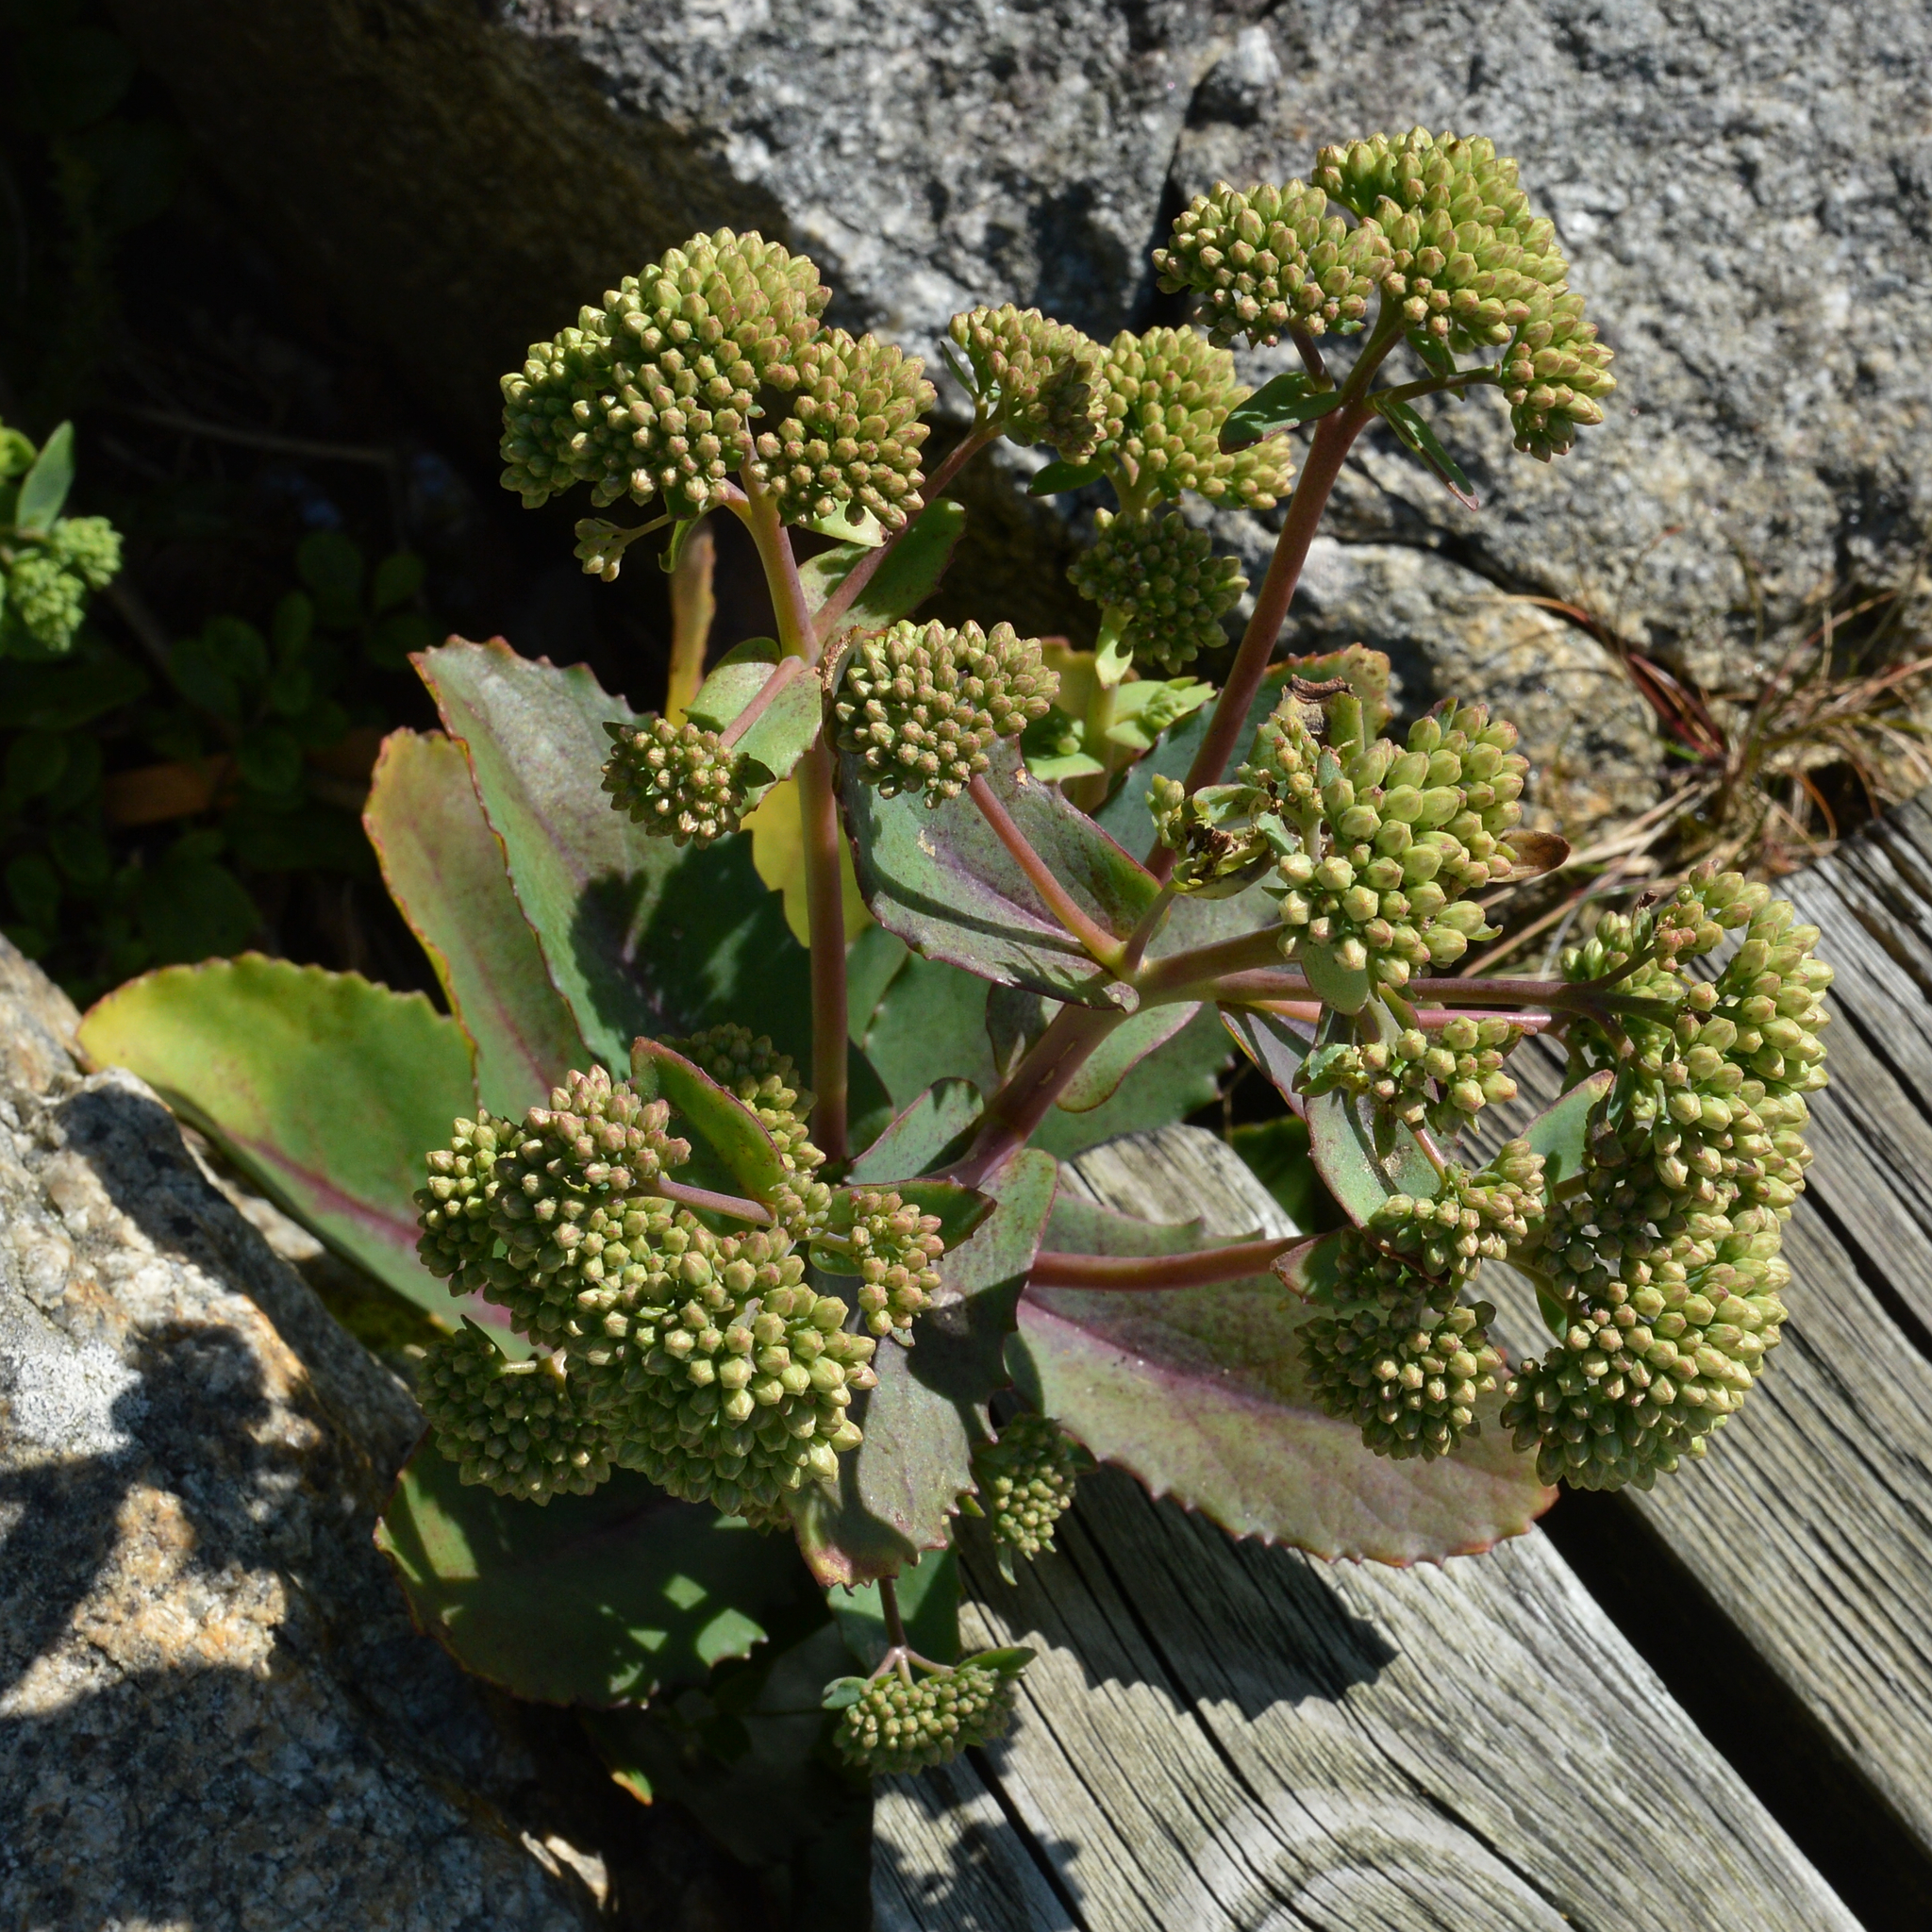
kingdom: Plantae
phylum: Tracheophyta
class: Magnoliopsida
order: Saxifragales
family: Crassulaceae
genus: Hylotelephium
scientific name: Hylotelephium maximum
